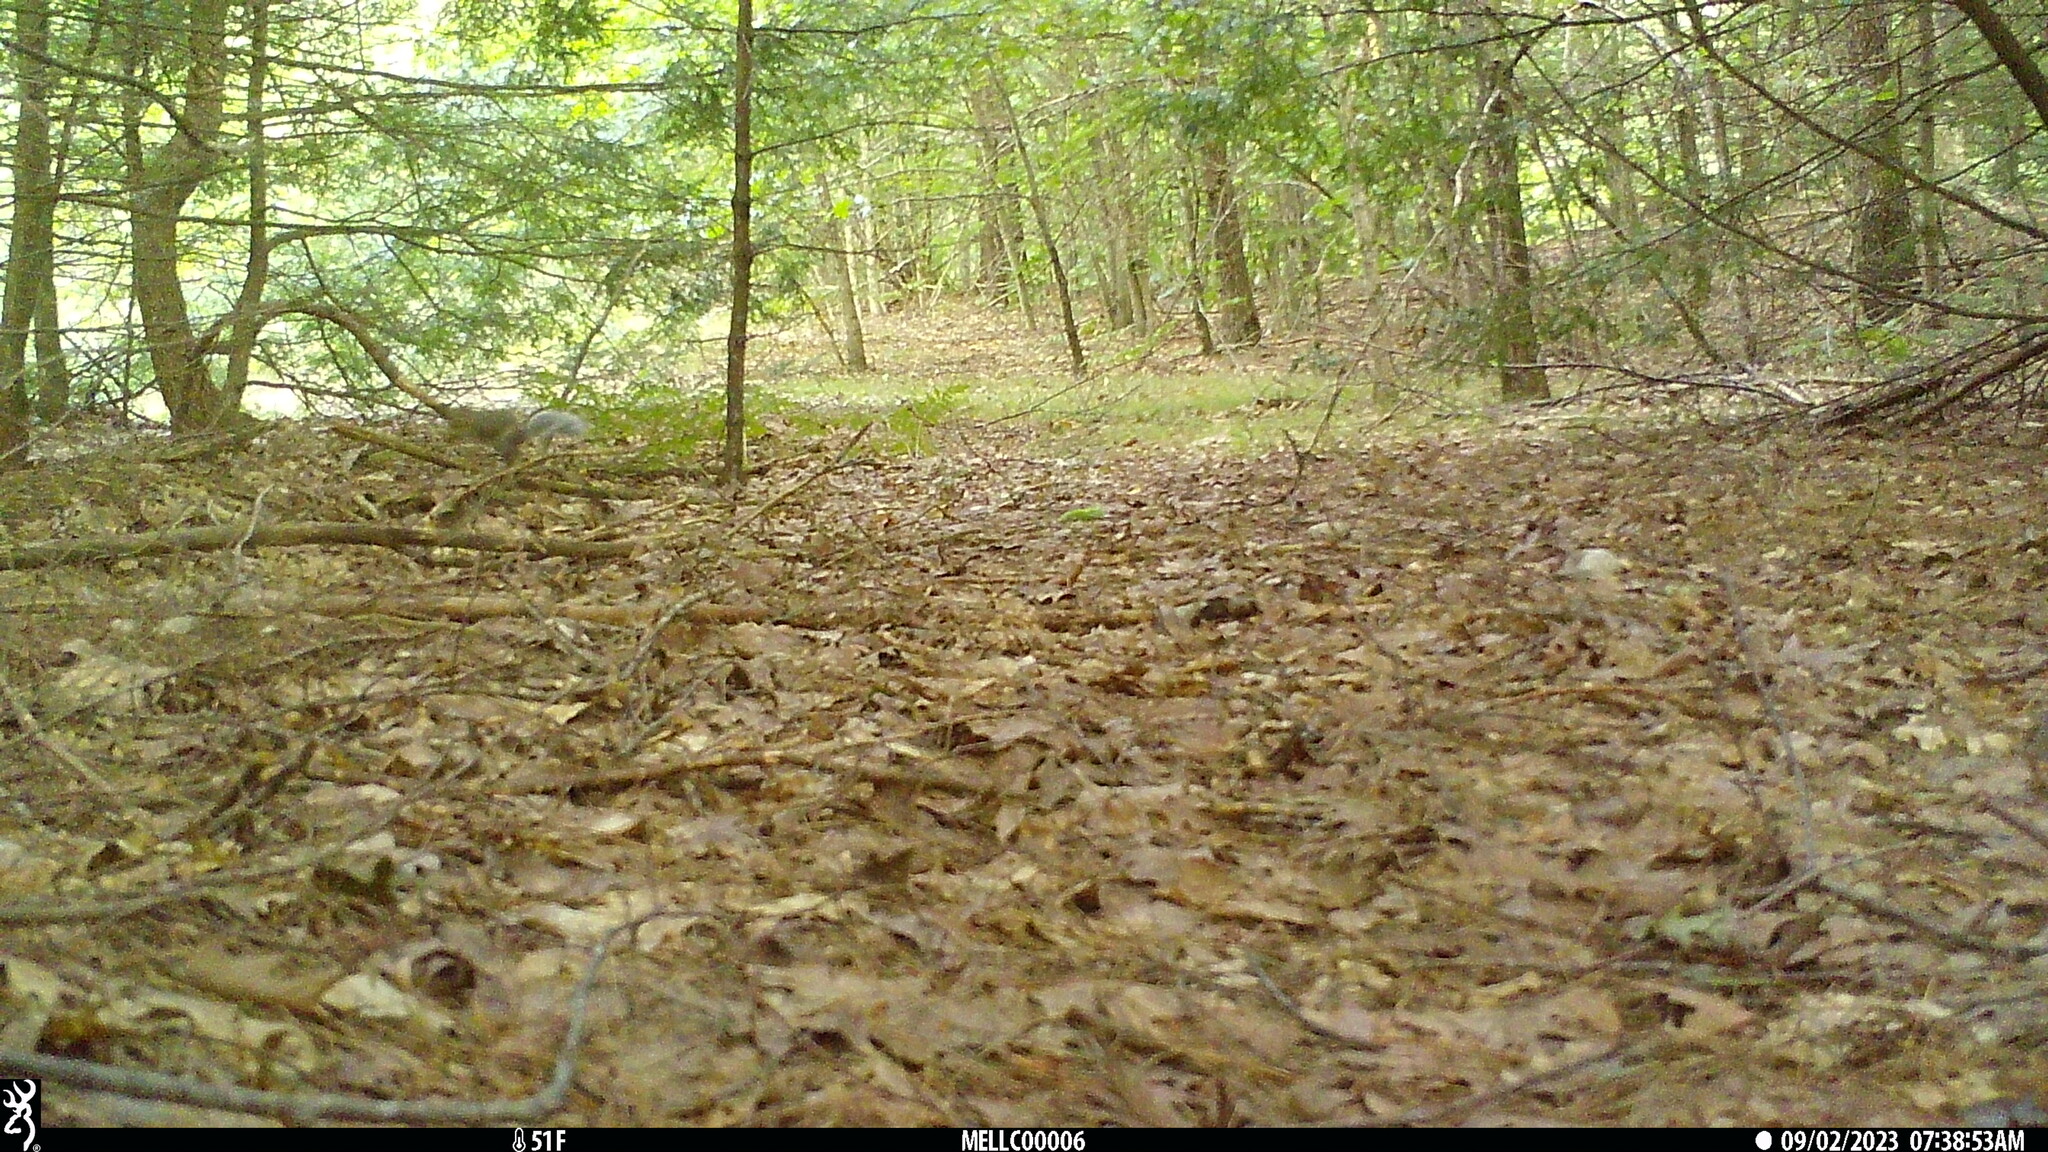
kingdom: Animalia
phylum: Chordata
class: Mammalia
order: Rodentia
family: Sciuridae
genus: Sciurus
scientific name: Sciurus carolinensis
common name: Eastern gray squirrel
